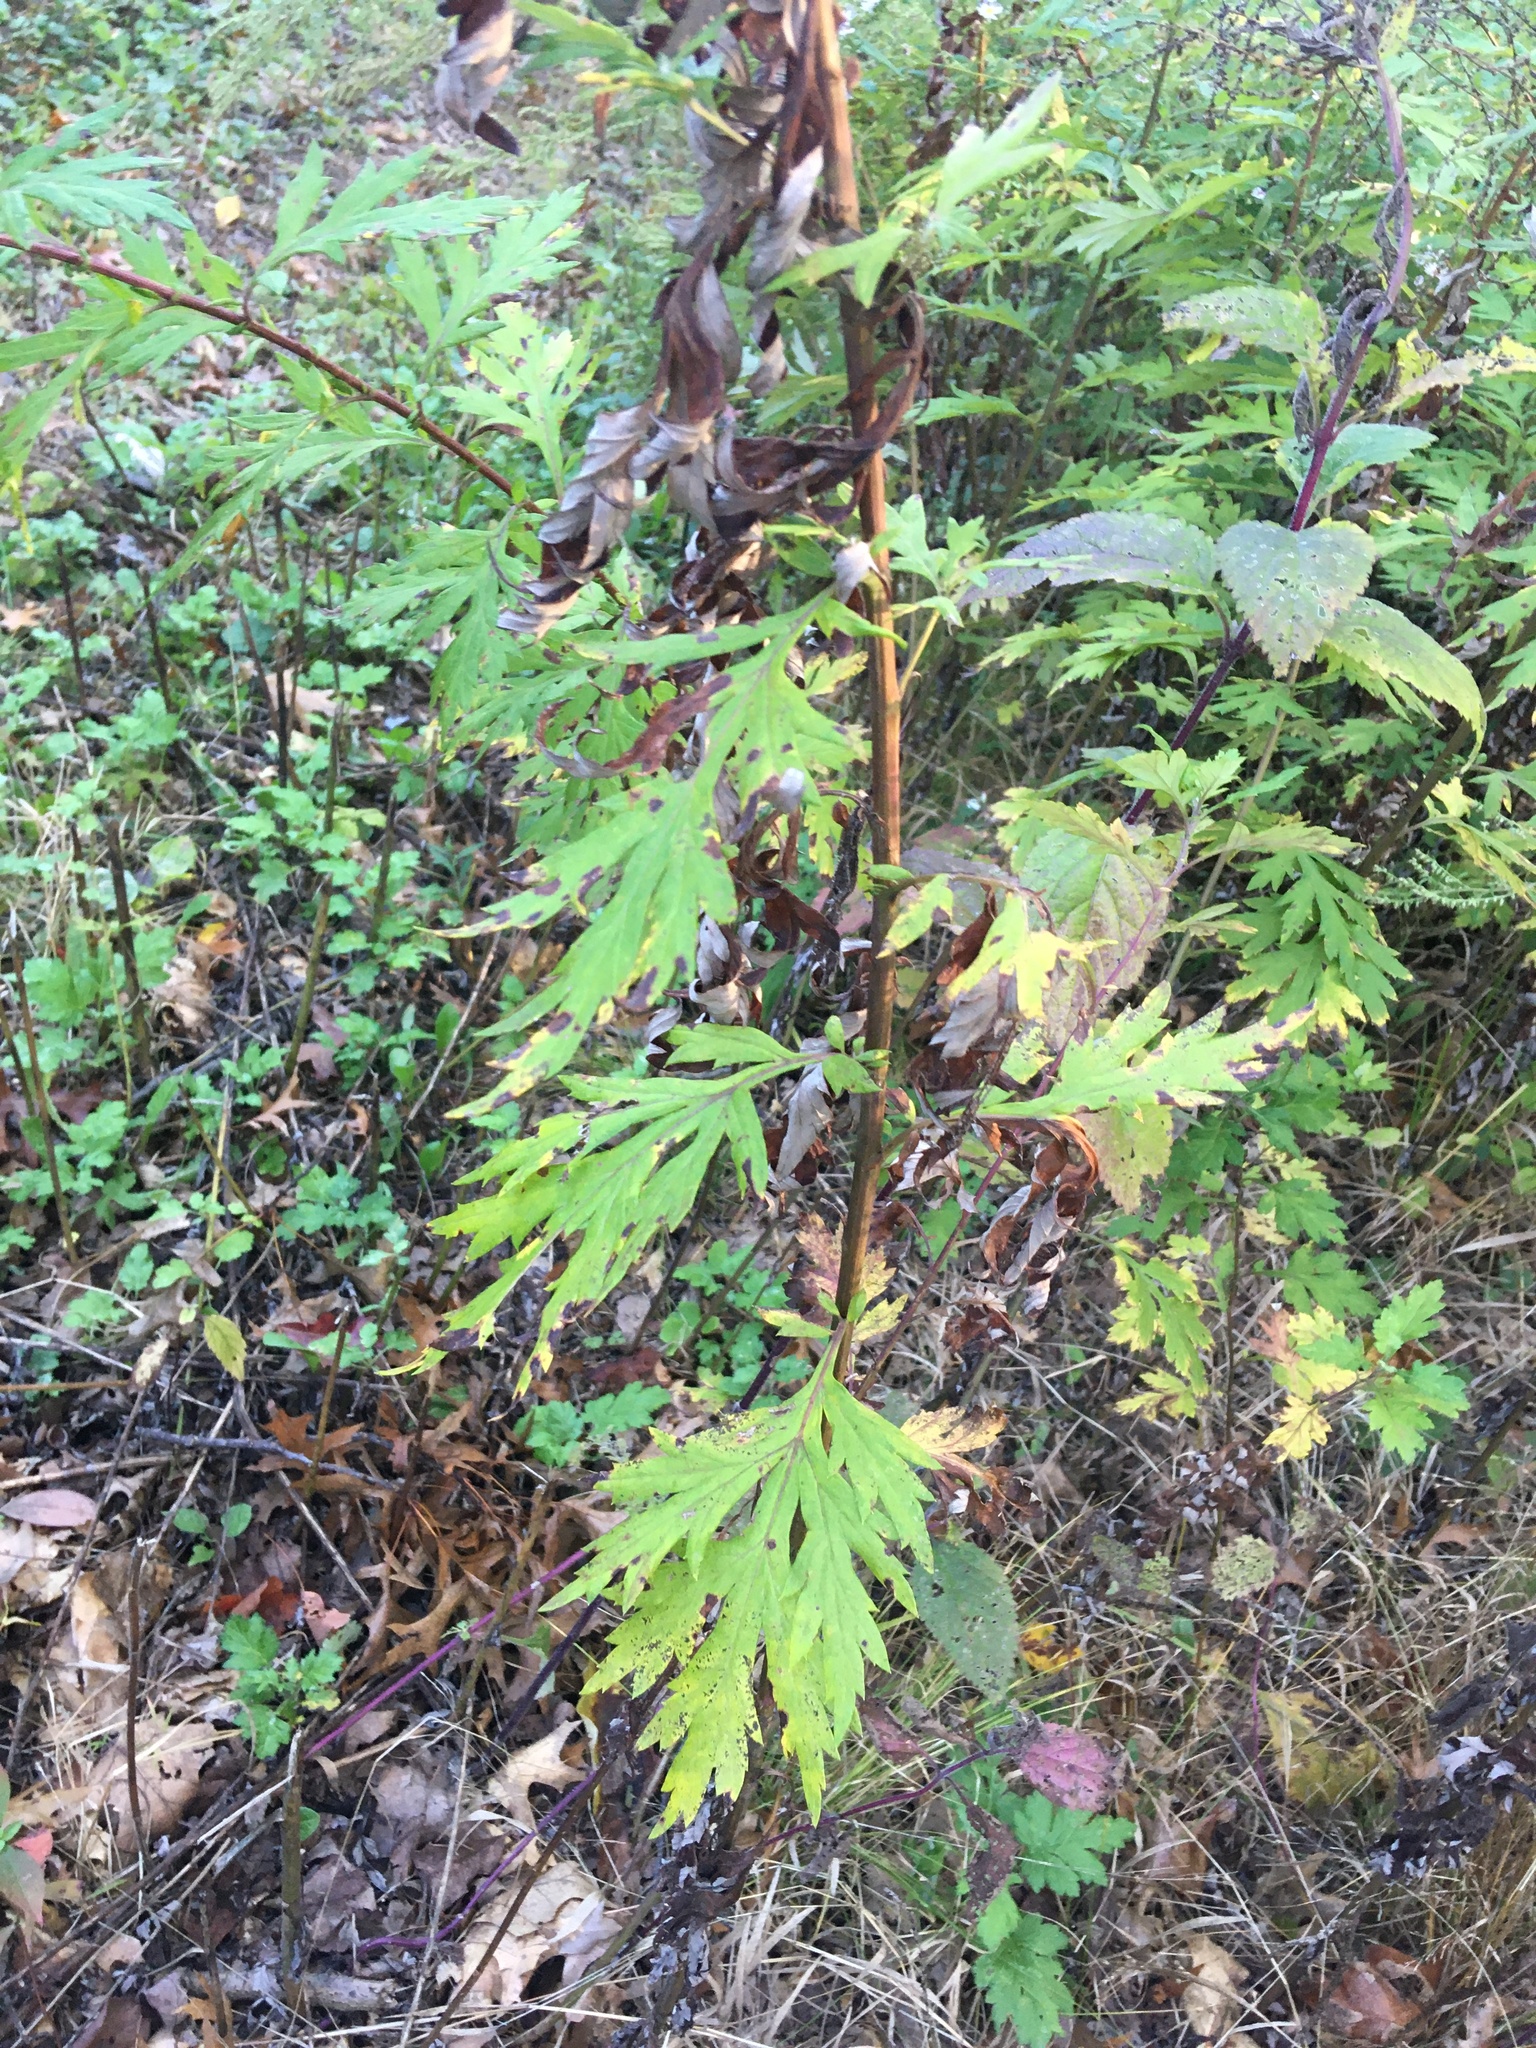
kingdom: Plantae
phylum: Tracheophyta
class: Magnoliopsida
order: Asterales
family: Asteraceae
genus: Artemisia
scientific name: Artemisia vulgaris
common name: Mugwort
